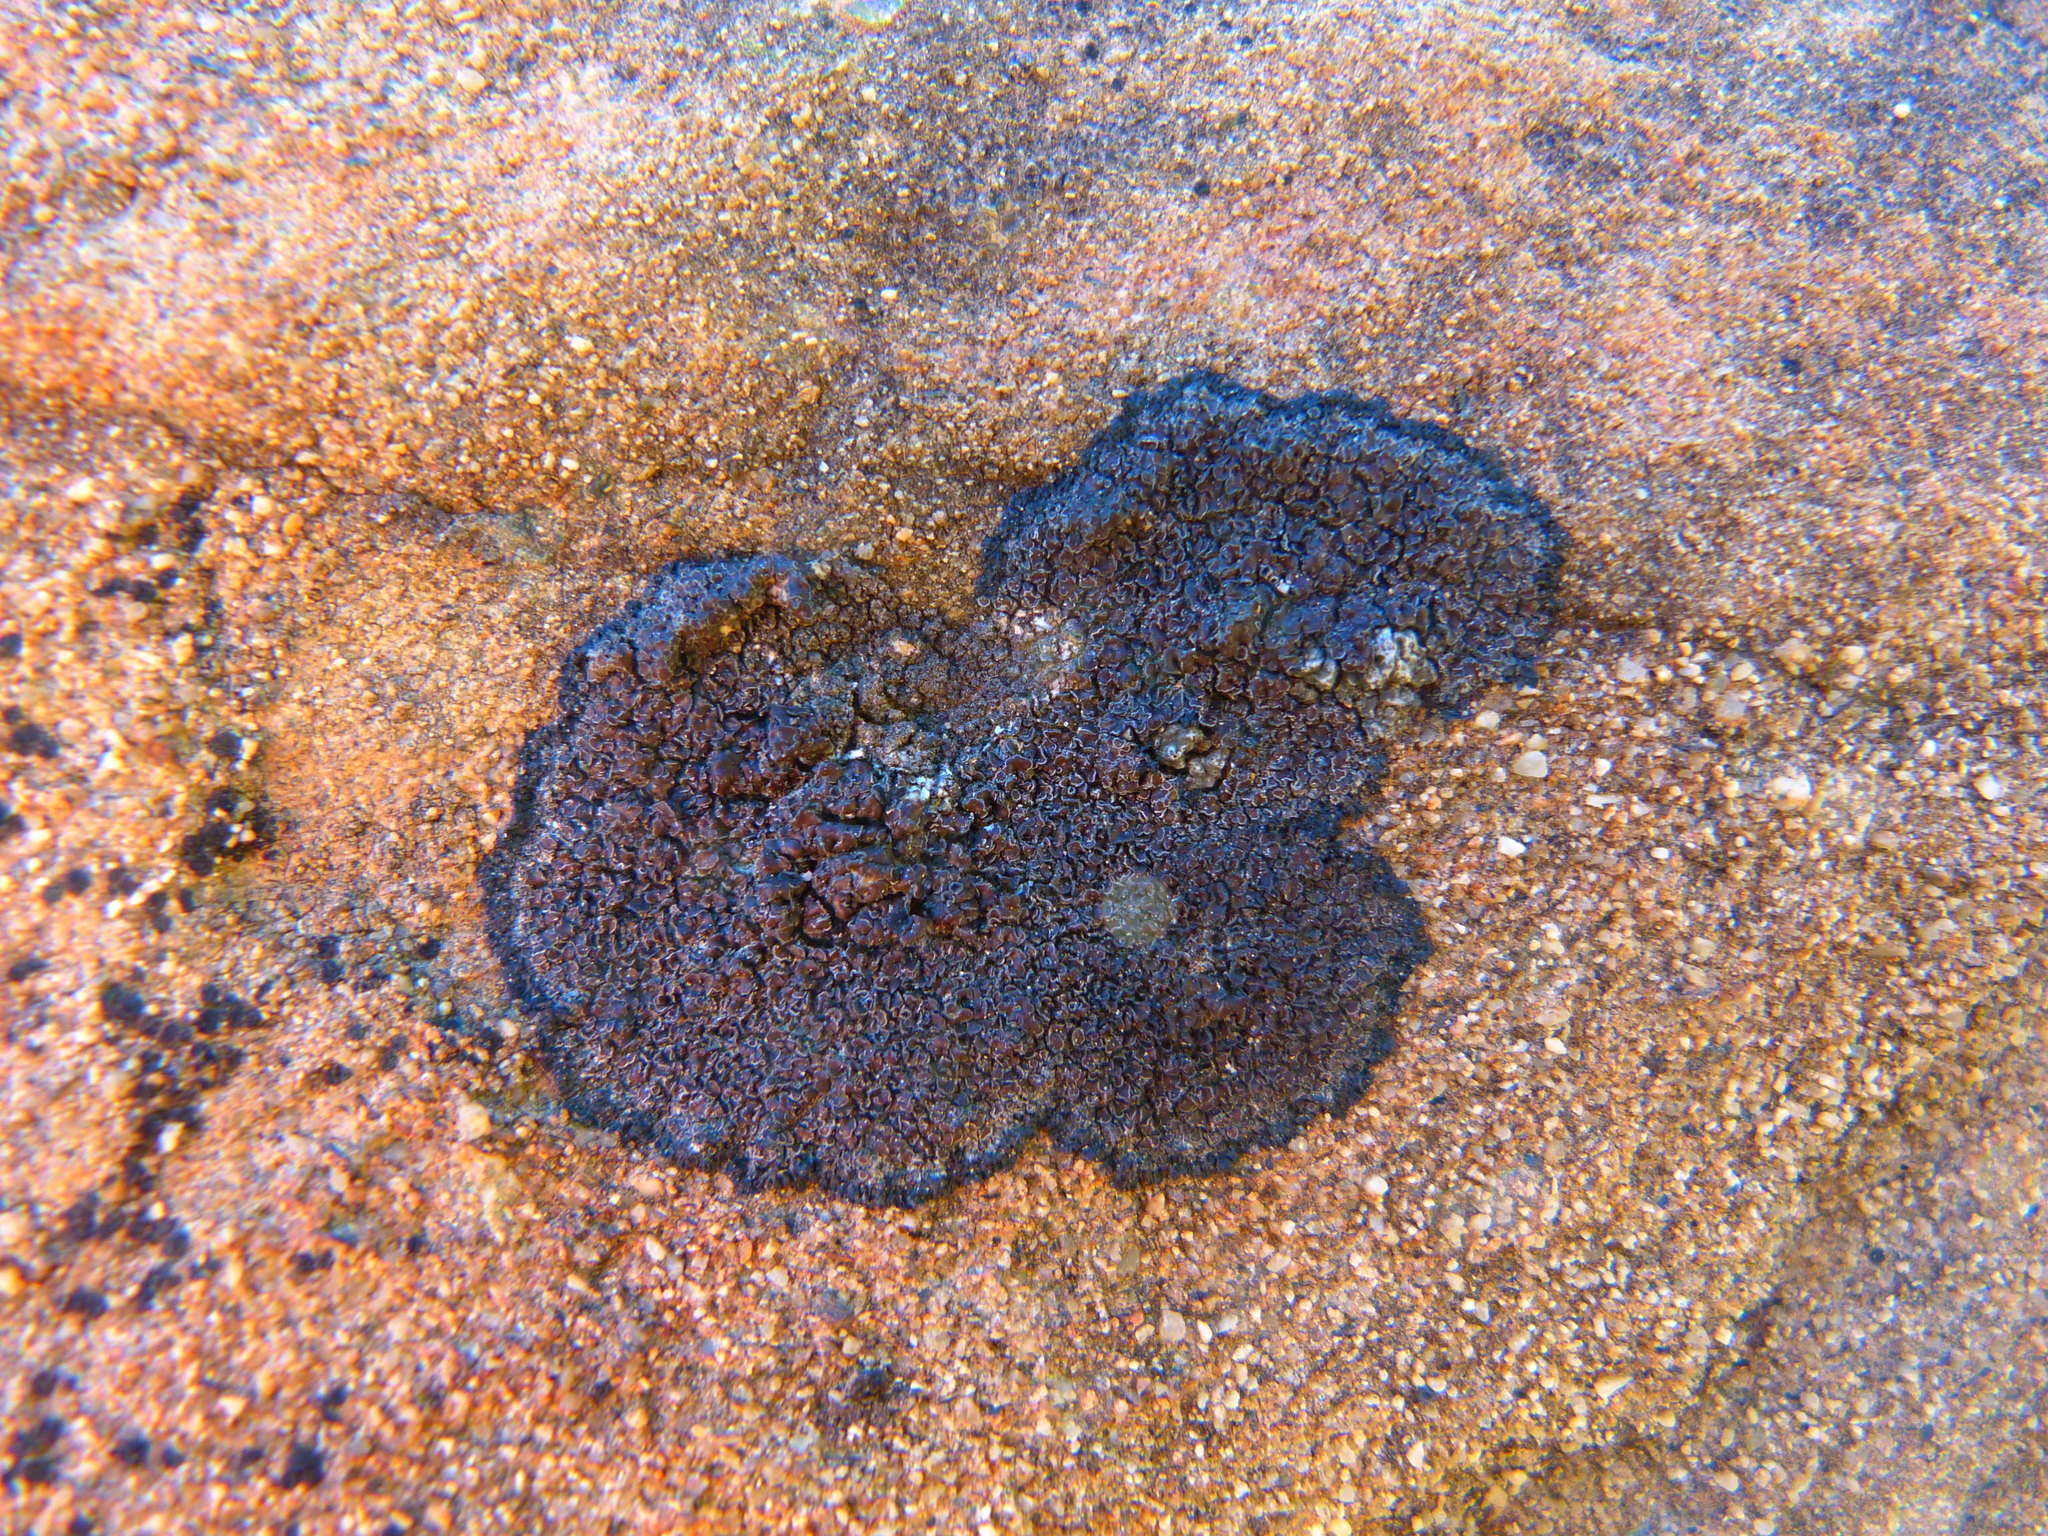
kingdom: Fungi
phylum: Ascomycota
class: Lecanoromycetes
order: Lecanorales
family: Lecanoraceae
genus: Miriquidica
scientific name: Miriquidica scotopholis
